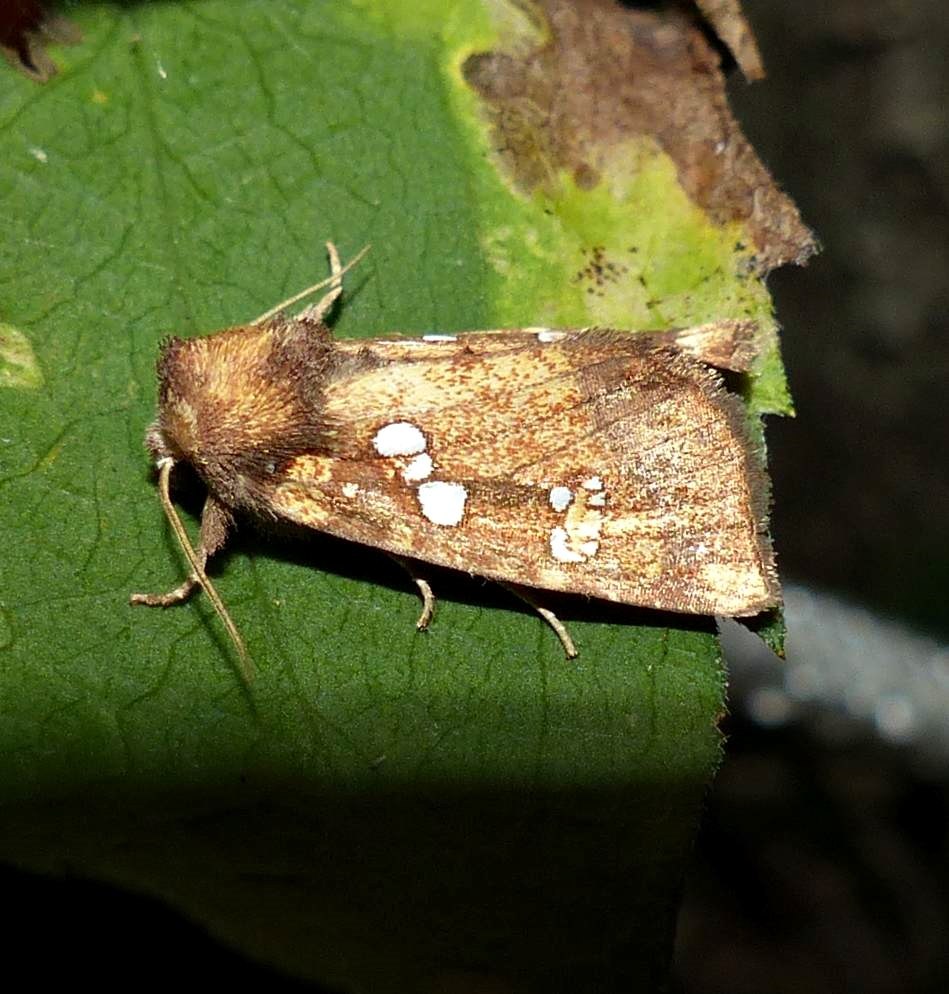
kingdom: Animalia
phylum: Arthropoda
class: Insecta
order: Lepidoptera
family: Noctuidae
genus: Papaipema
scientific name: Papaipema arctivorens
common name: Northern burdock borer moth
